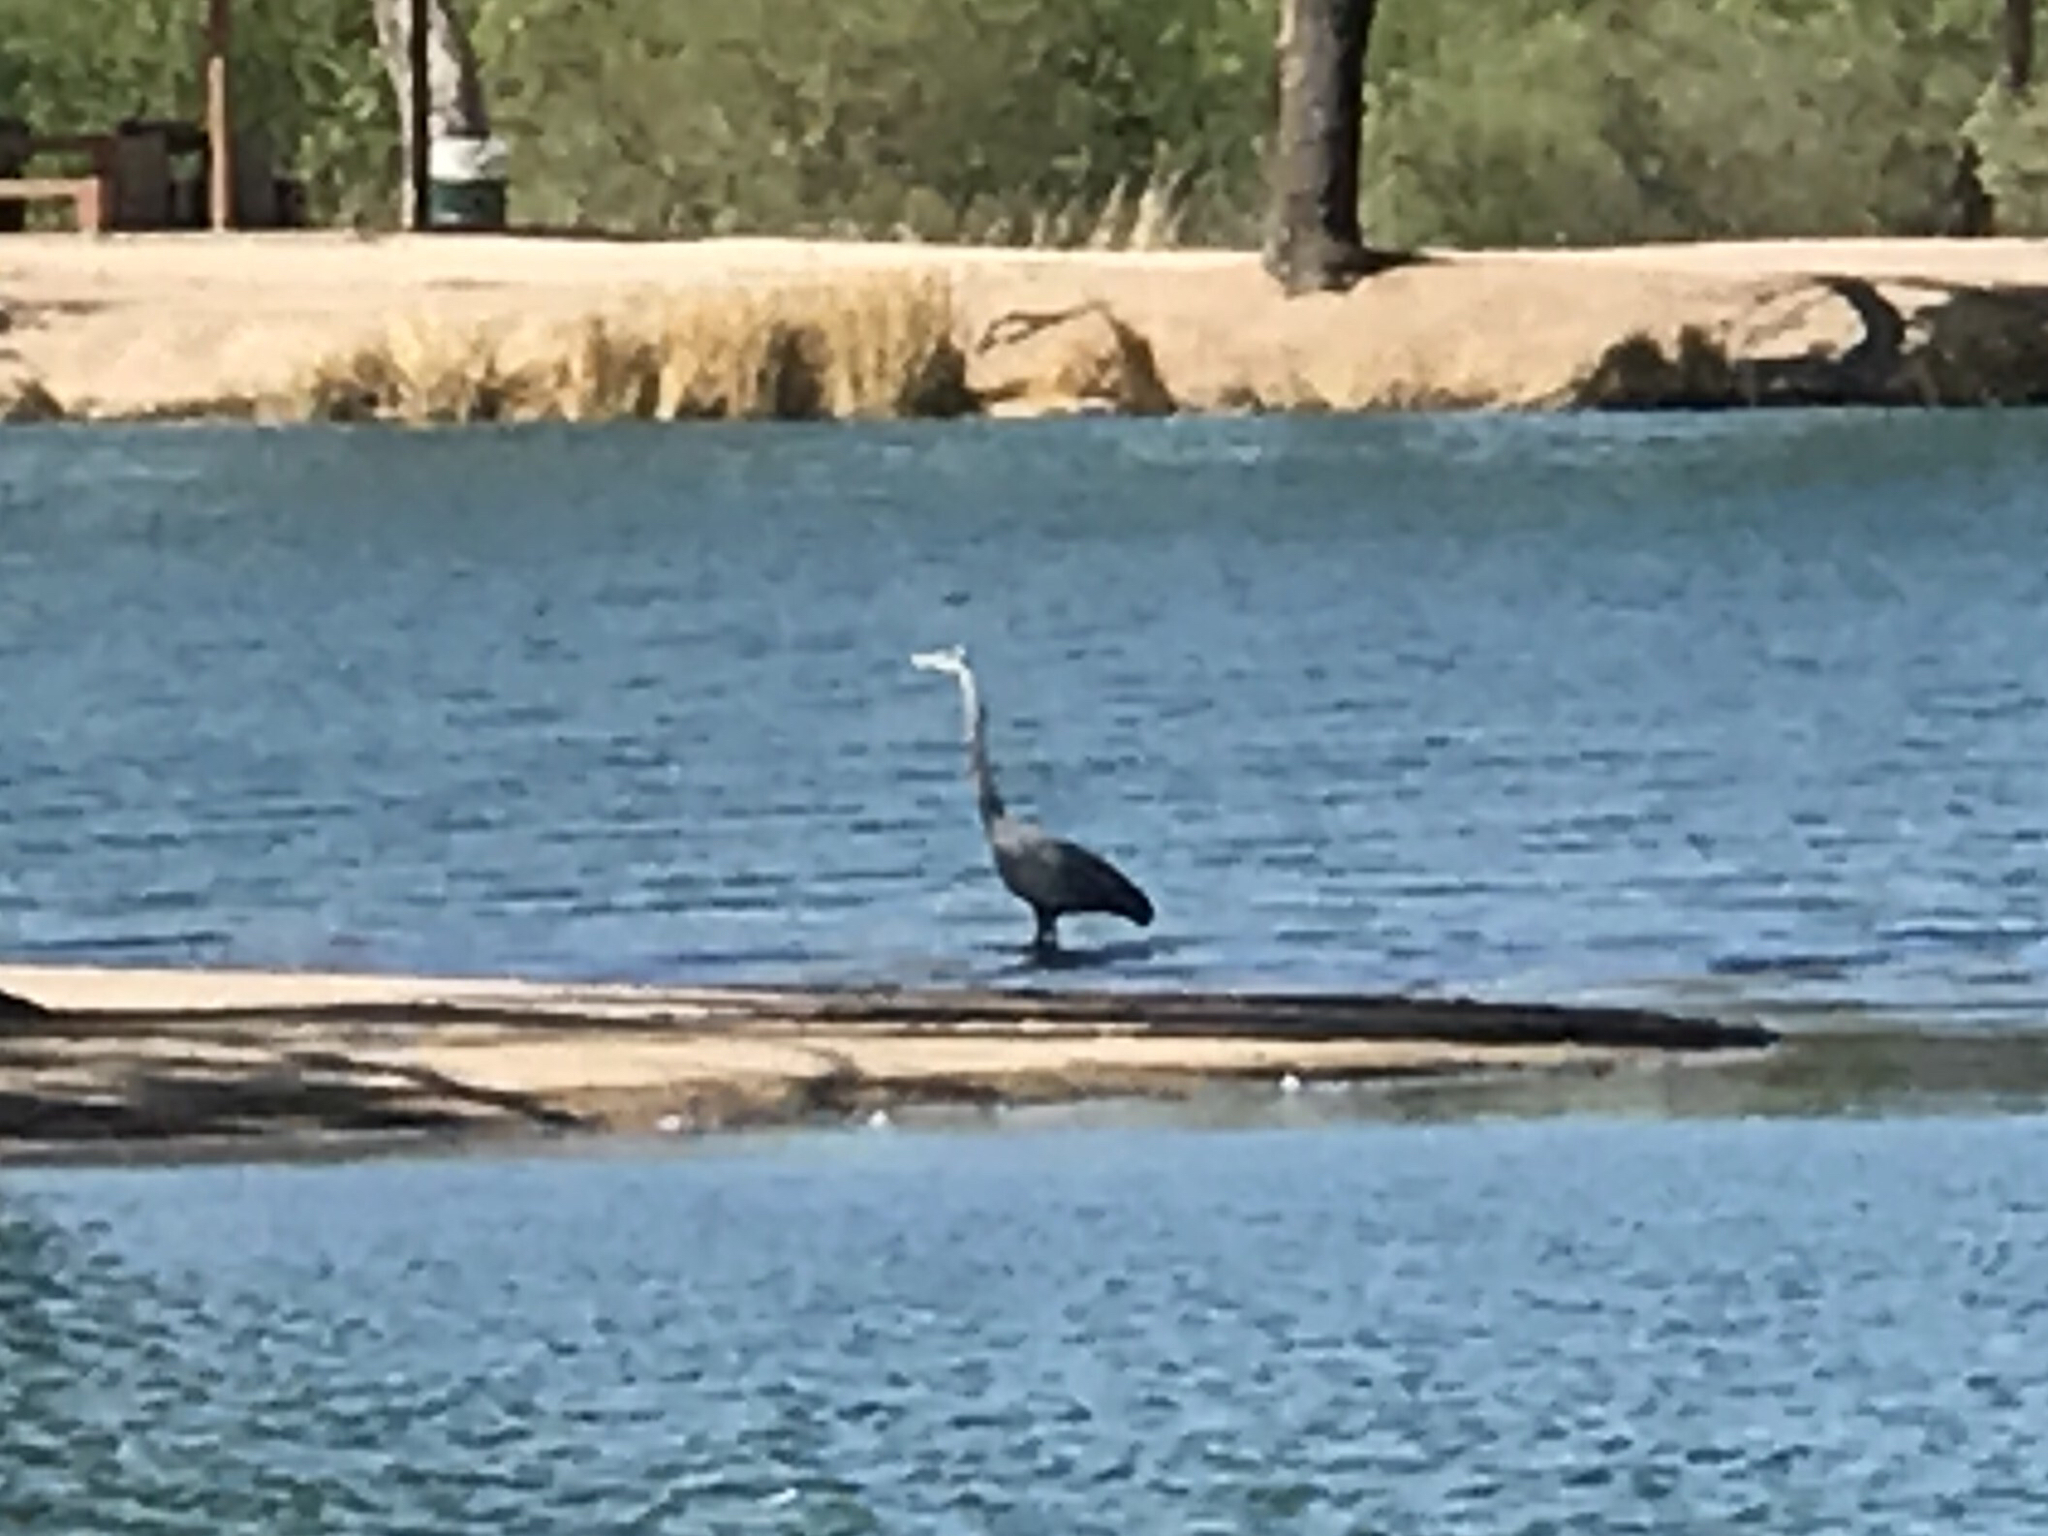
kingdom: Animalia
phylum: Chordata
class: Aves
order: Pelecaniformes
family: Ardeidae
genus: Ardea
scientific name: Ardea herodias
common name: Great blue heron
